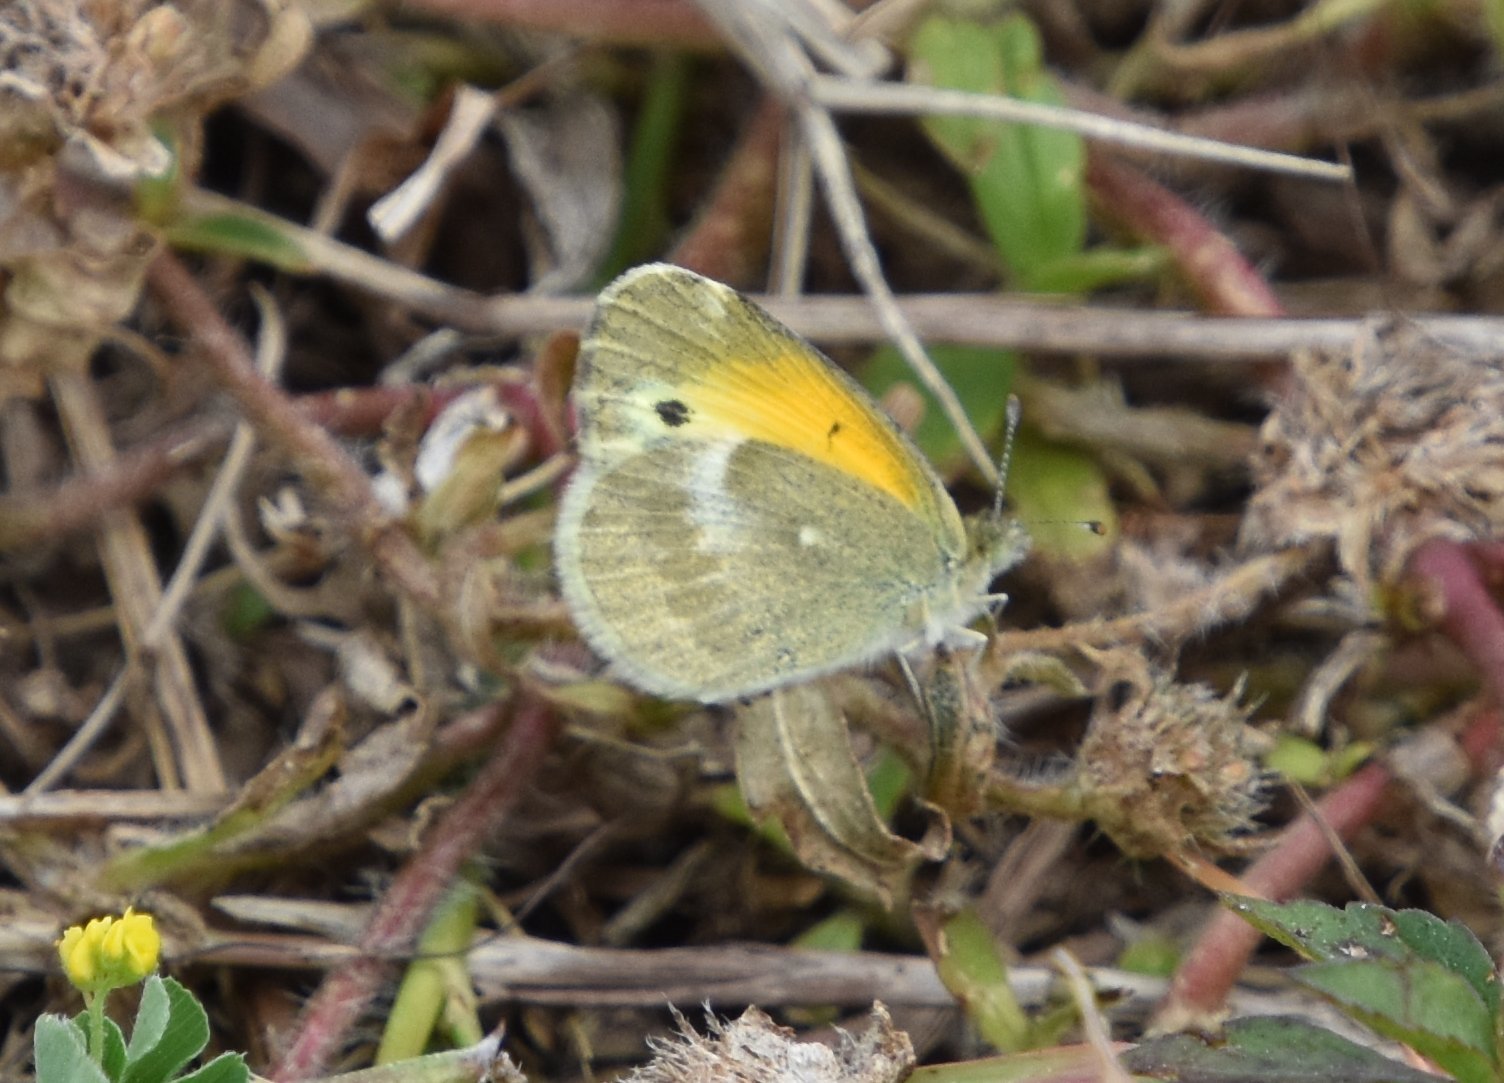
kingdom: Animalia
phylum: Arthropoda
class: Insecta
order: Lepidoptera
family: Pieridae
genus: Nathalis
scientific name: Nathalis iole
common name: Dainty sulphur
